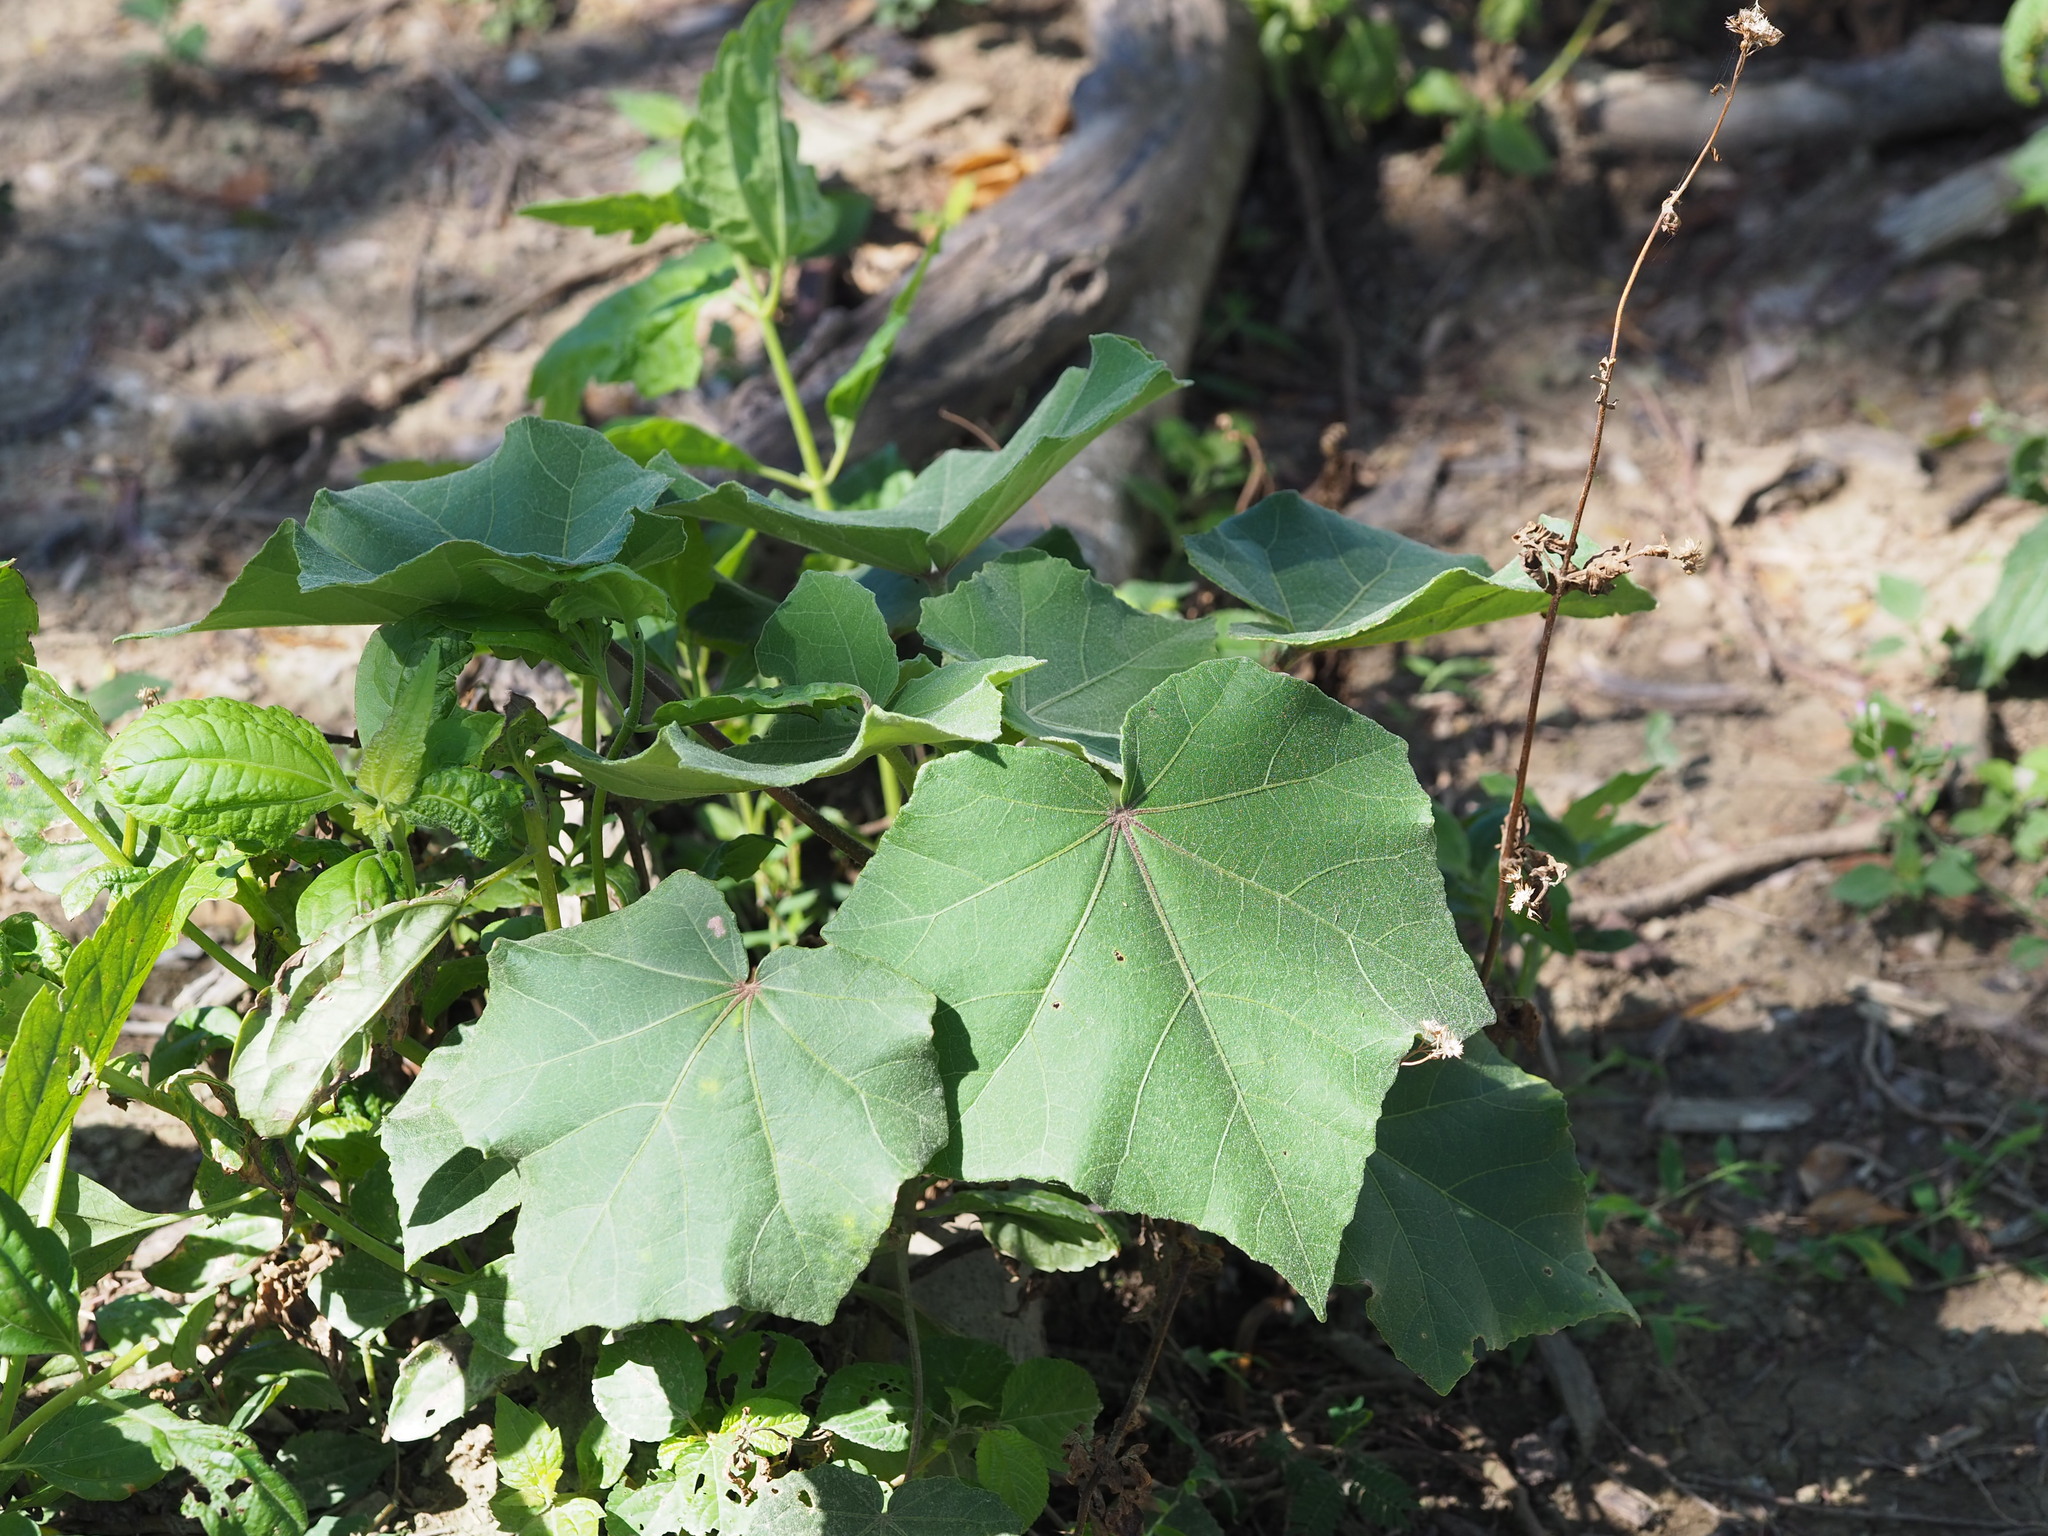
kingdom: Plantae
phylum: Tracheophyta
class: Magnoliopsida
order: Malvales
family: Malvaceae
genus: Hibiscus
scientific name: Hibiscus taiwanensis
